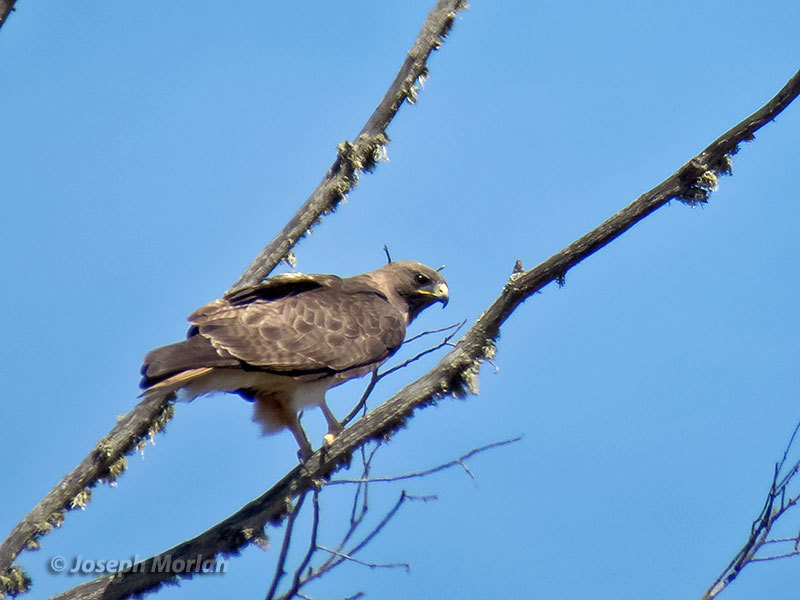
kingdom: Animalia
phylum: Chordata
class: Aves
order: Accipitriformes
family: Accipitridae
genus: Buteo
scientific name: Buteo jamaicensis
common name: Red-tailed hawk
